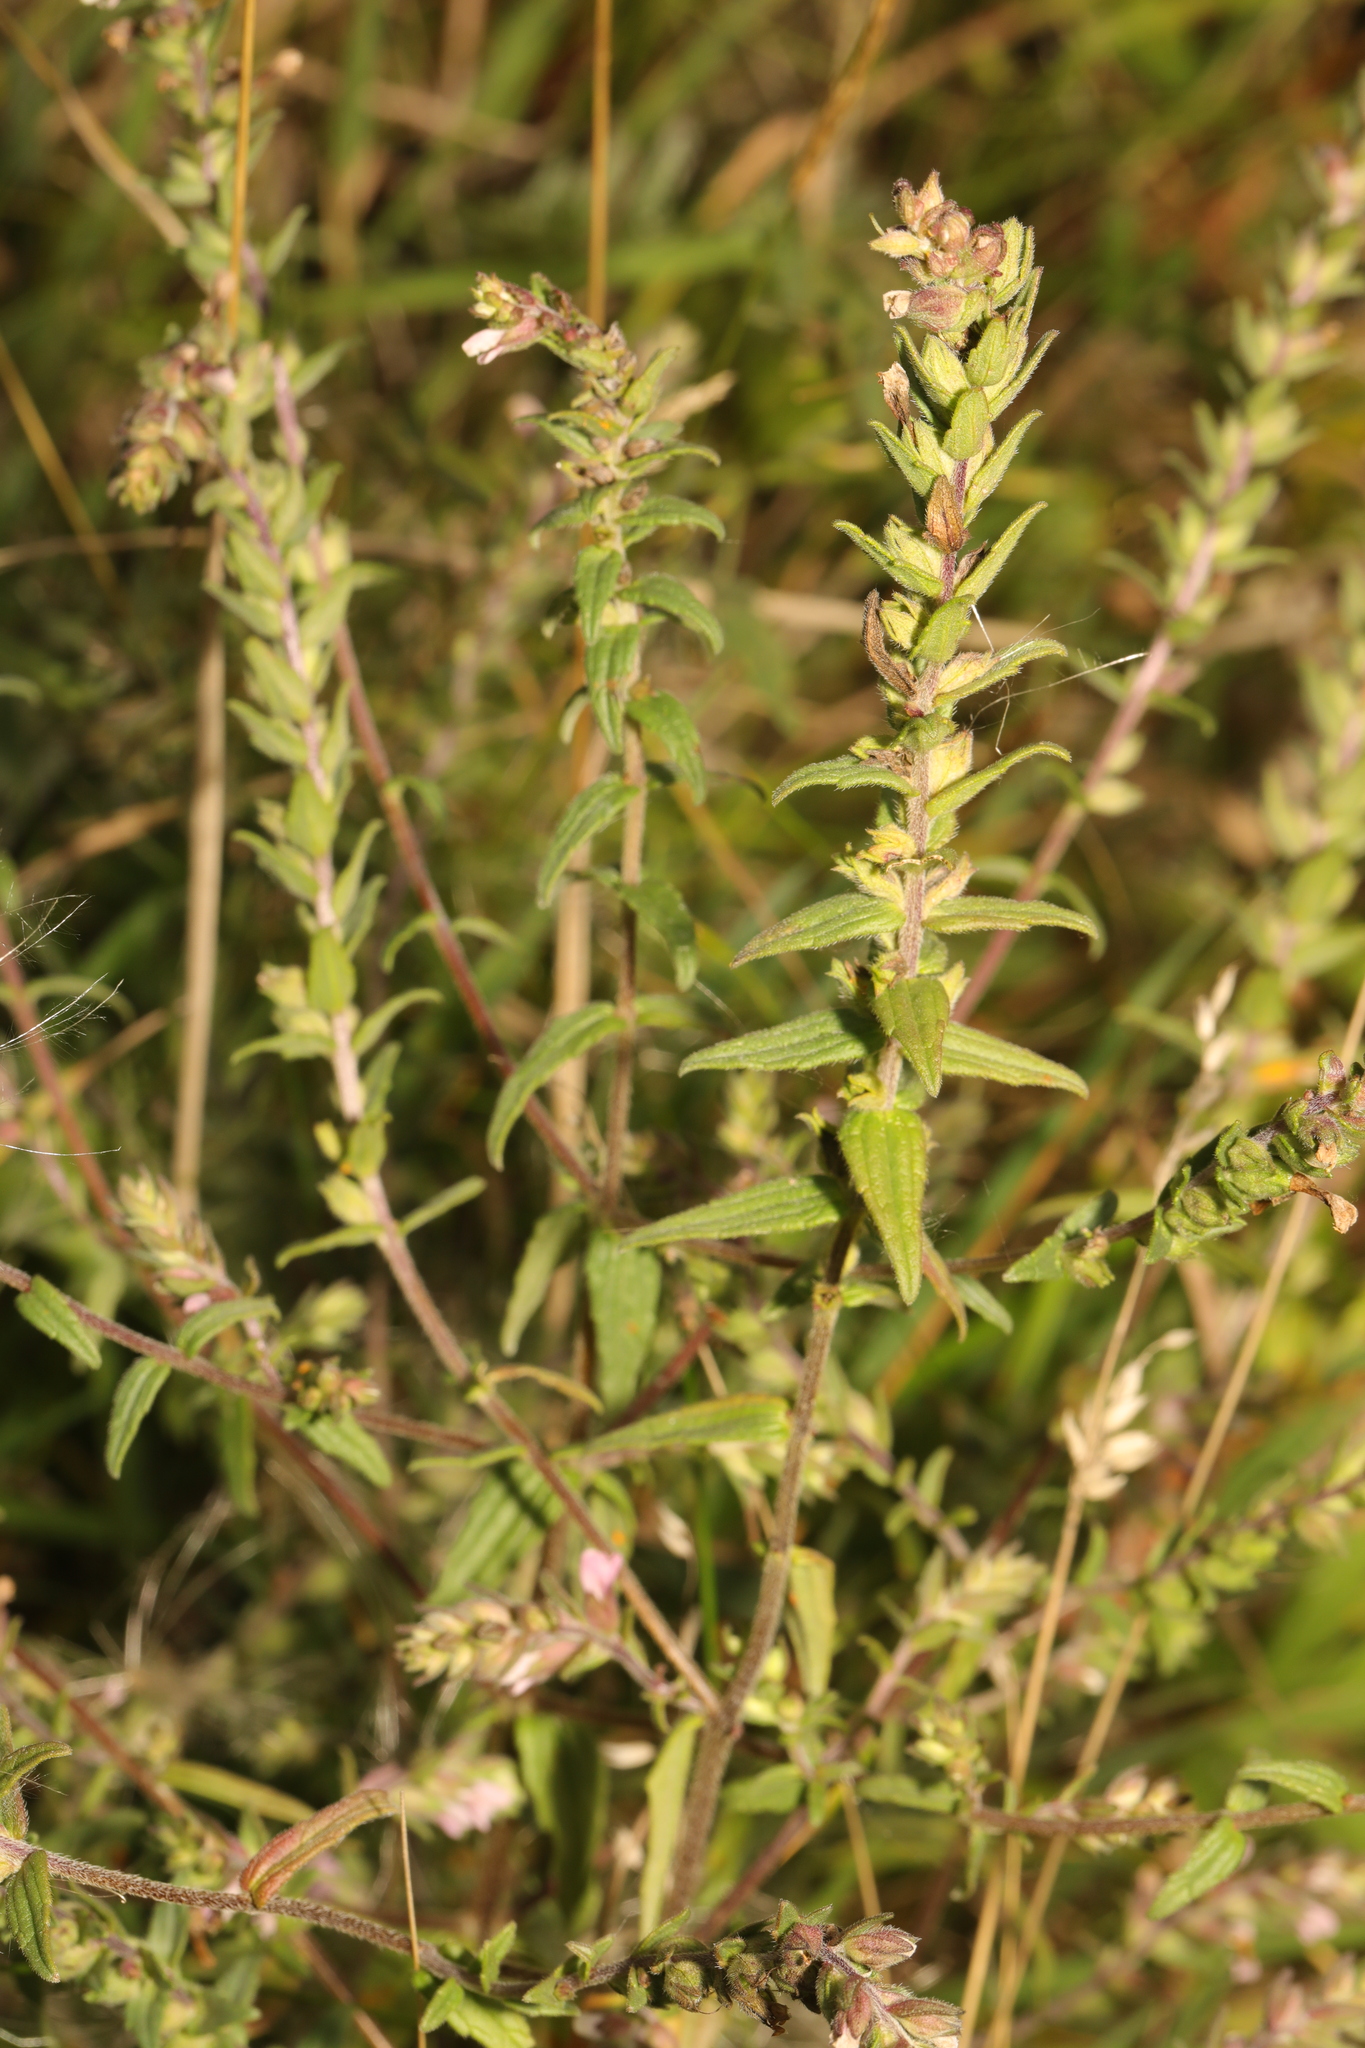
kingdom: Plantae
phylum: Tracheophyta
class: Magnoliopsida
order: Lamiales
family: Orobanchaceae
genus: Odontites
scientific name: Odontites vernus
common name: Red bartsia
